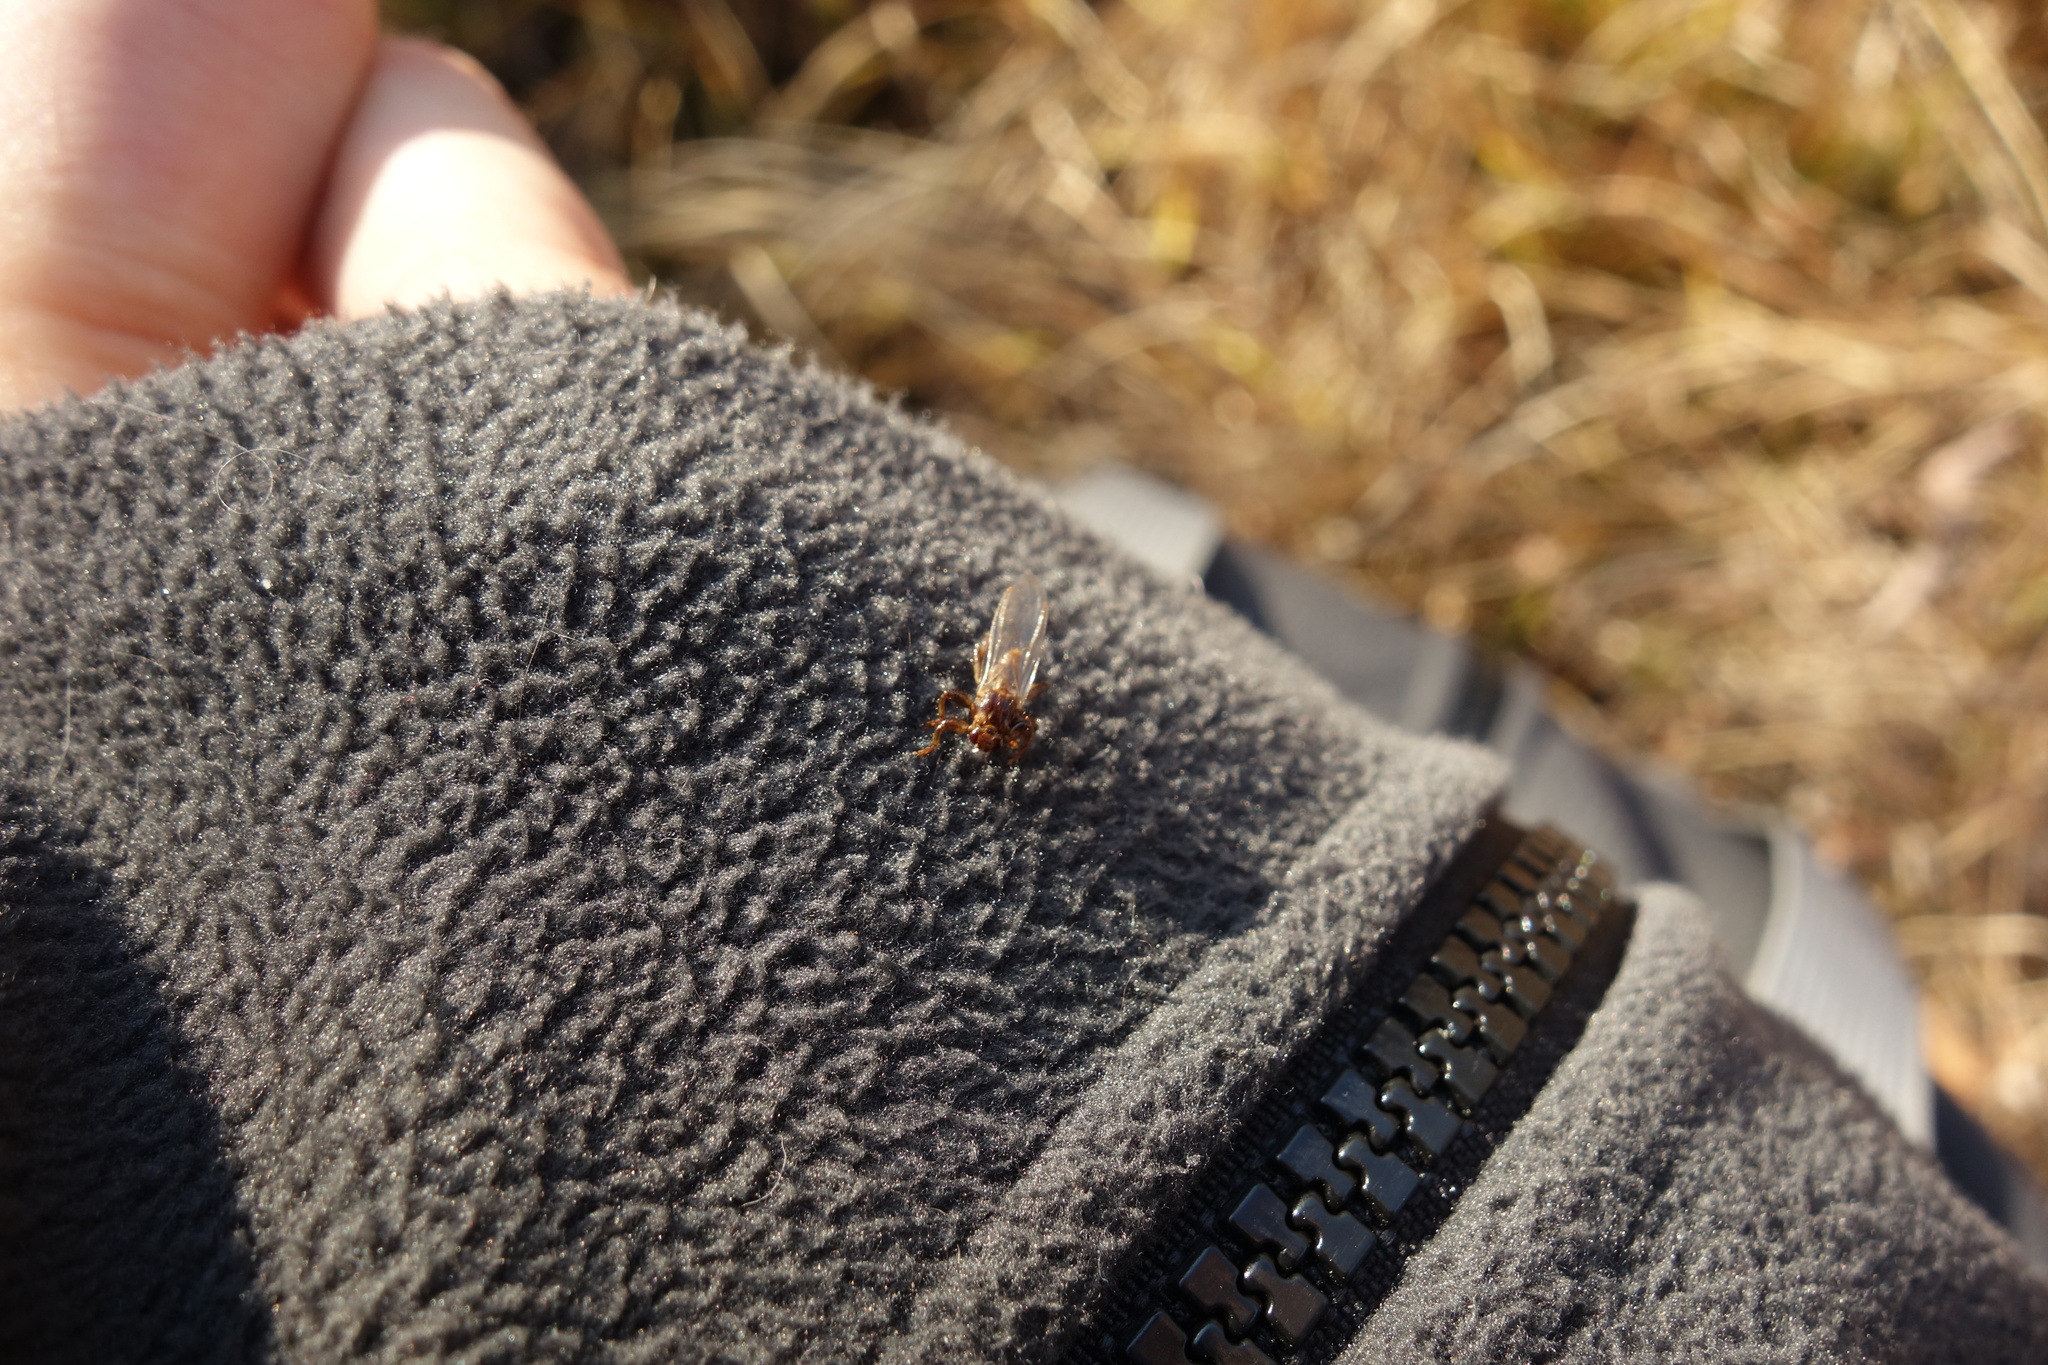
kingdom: Animalia
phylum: Arthropoda
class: Insecta
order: Diptera
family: Hippoboscidae
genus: Lipoptena
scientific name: Lipoptena cervi
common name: Deer ked
